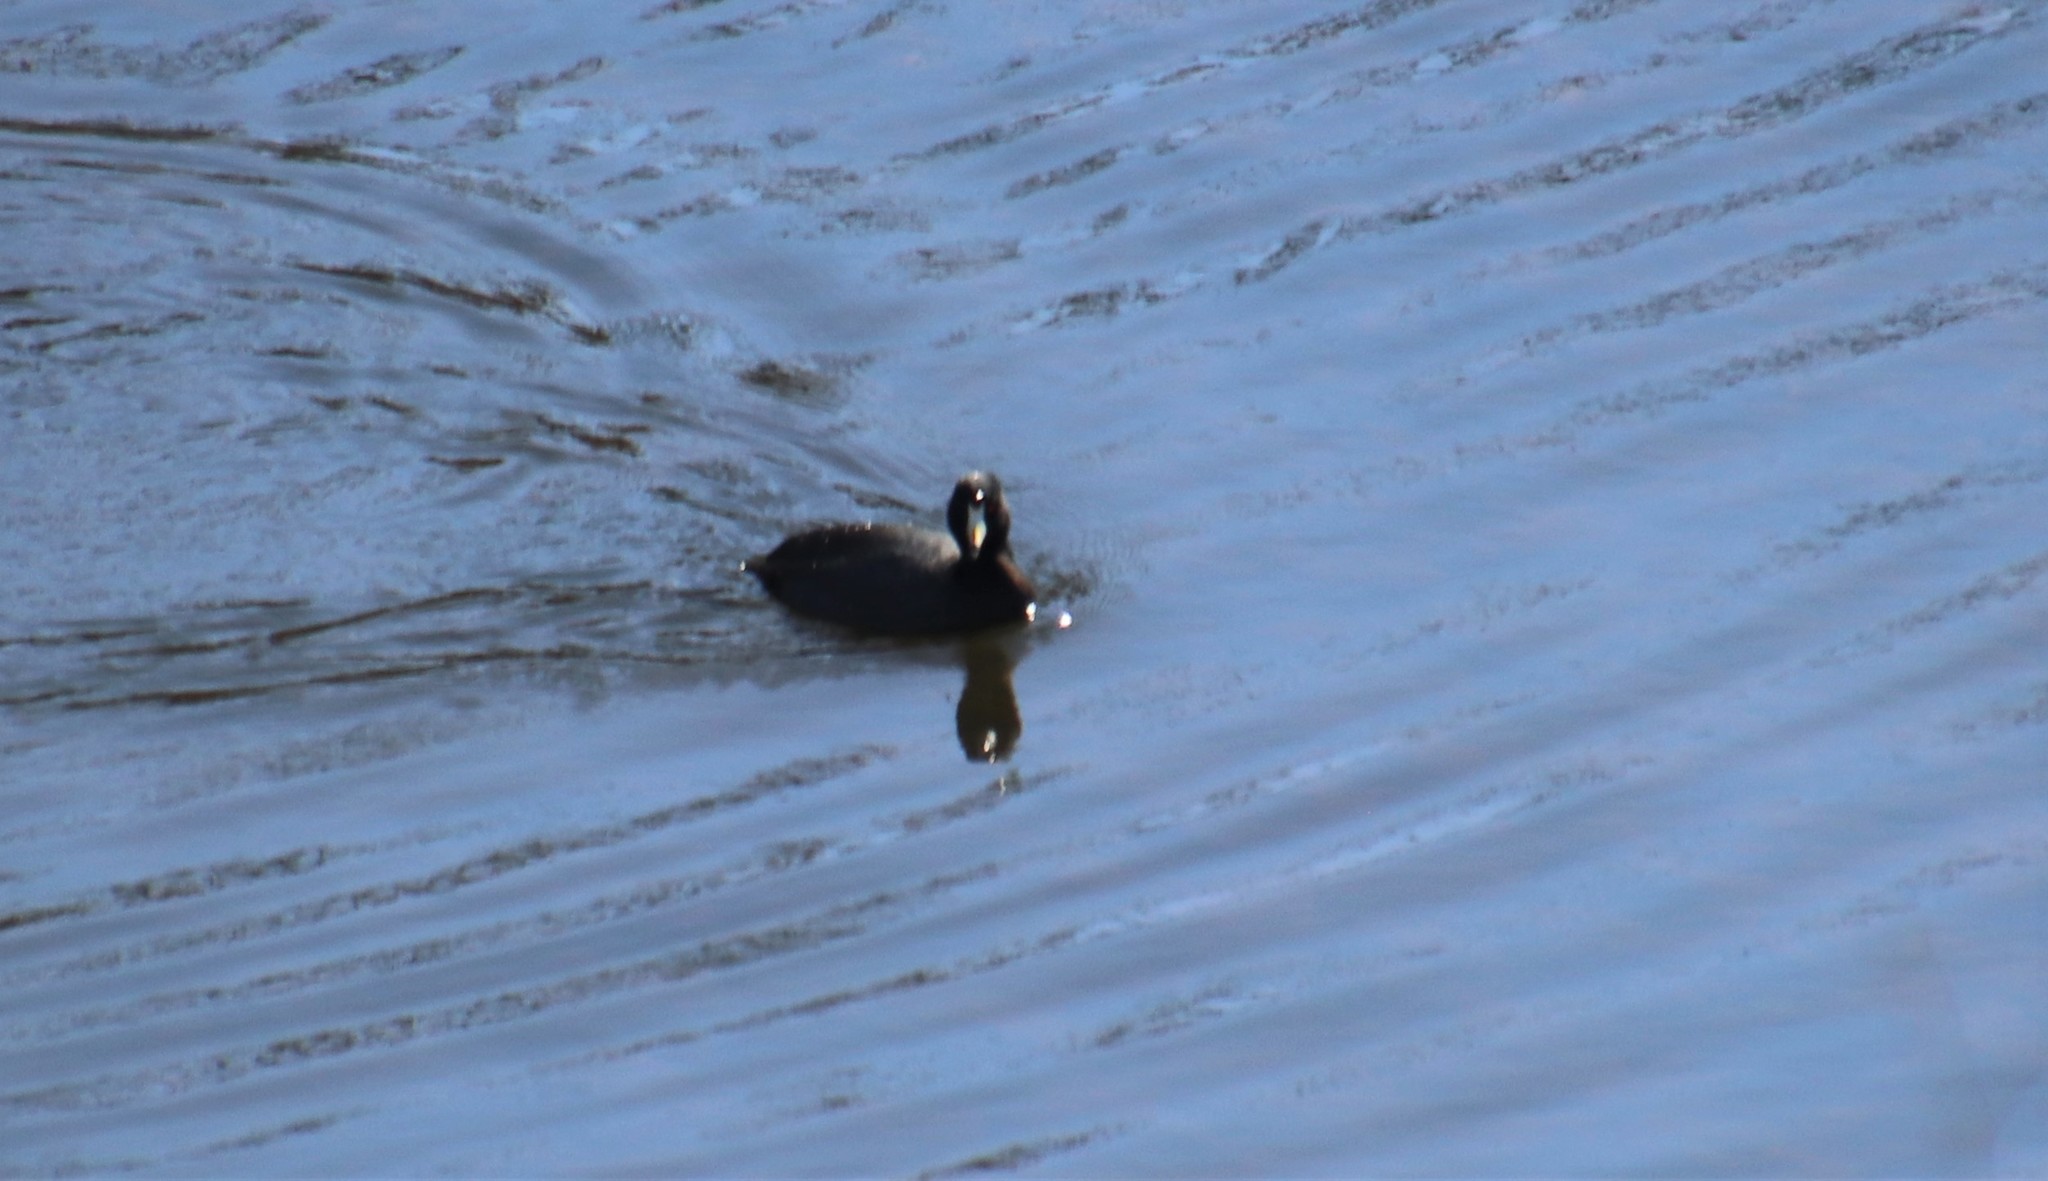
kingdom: Animalia
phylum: Chordata
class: Aves
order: Gruiformes
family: Rallidae
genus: Fulica
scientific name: Fulica americana
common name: American coot
